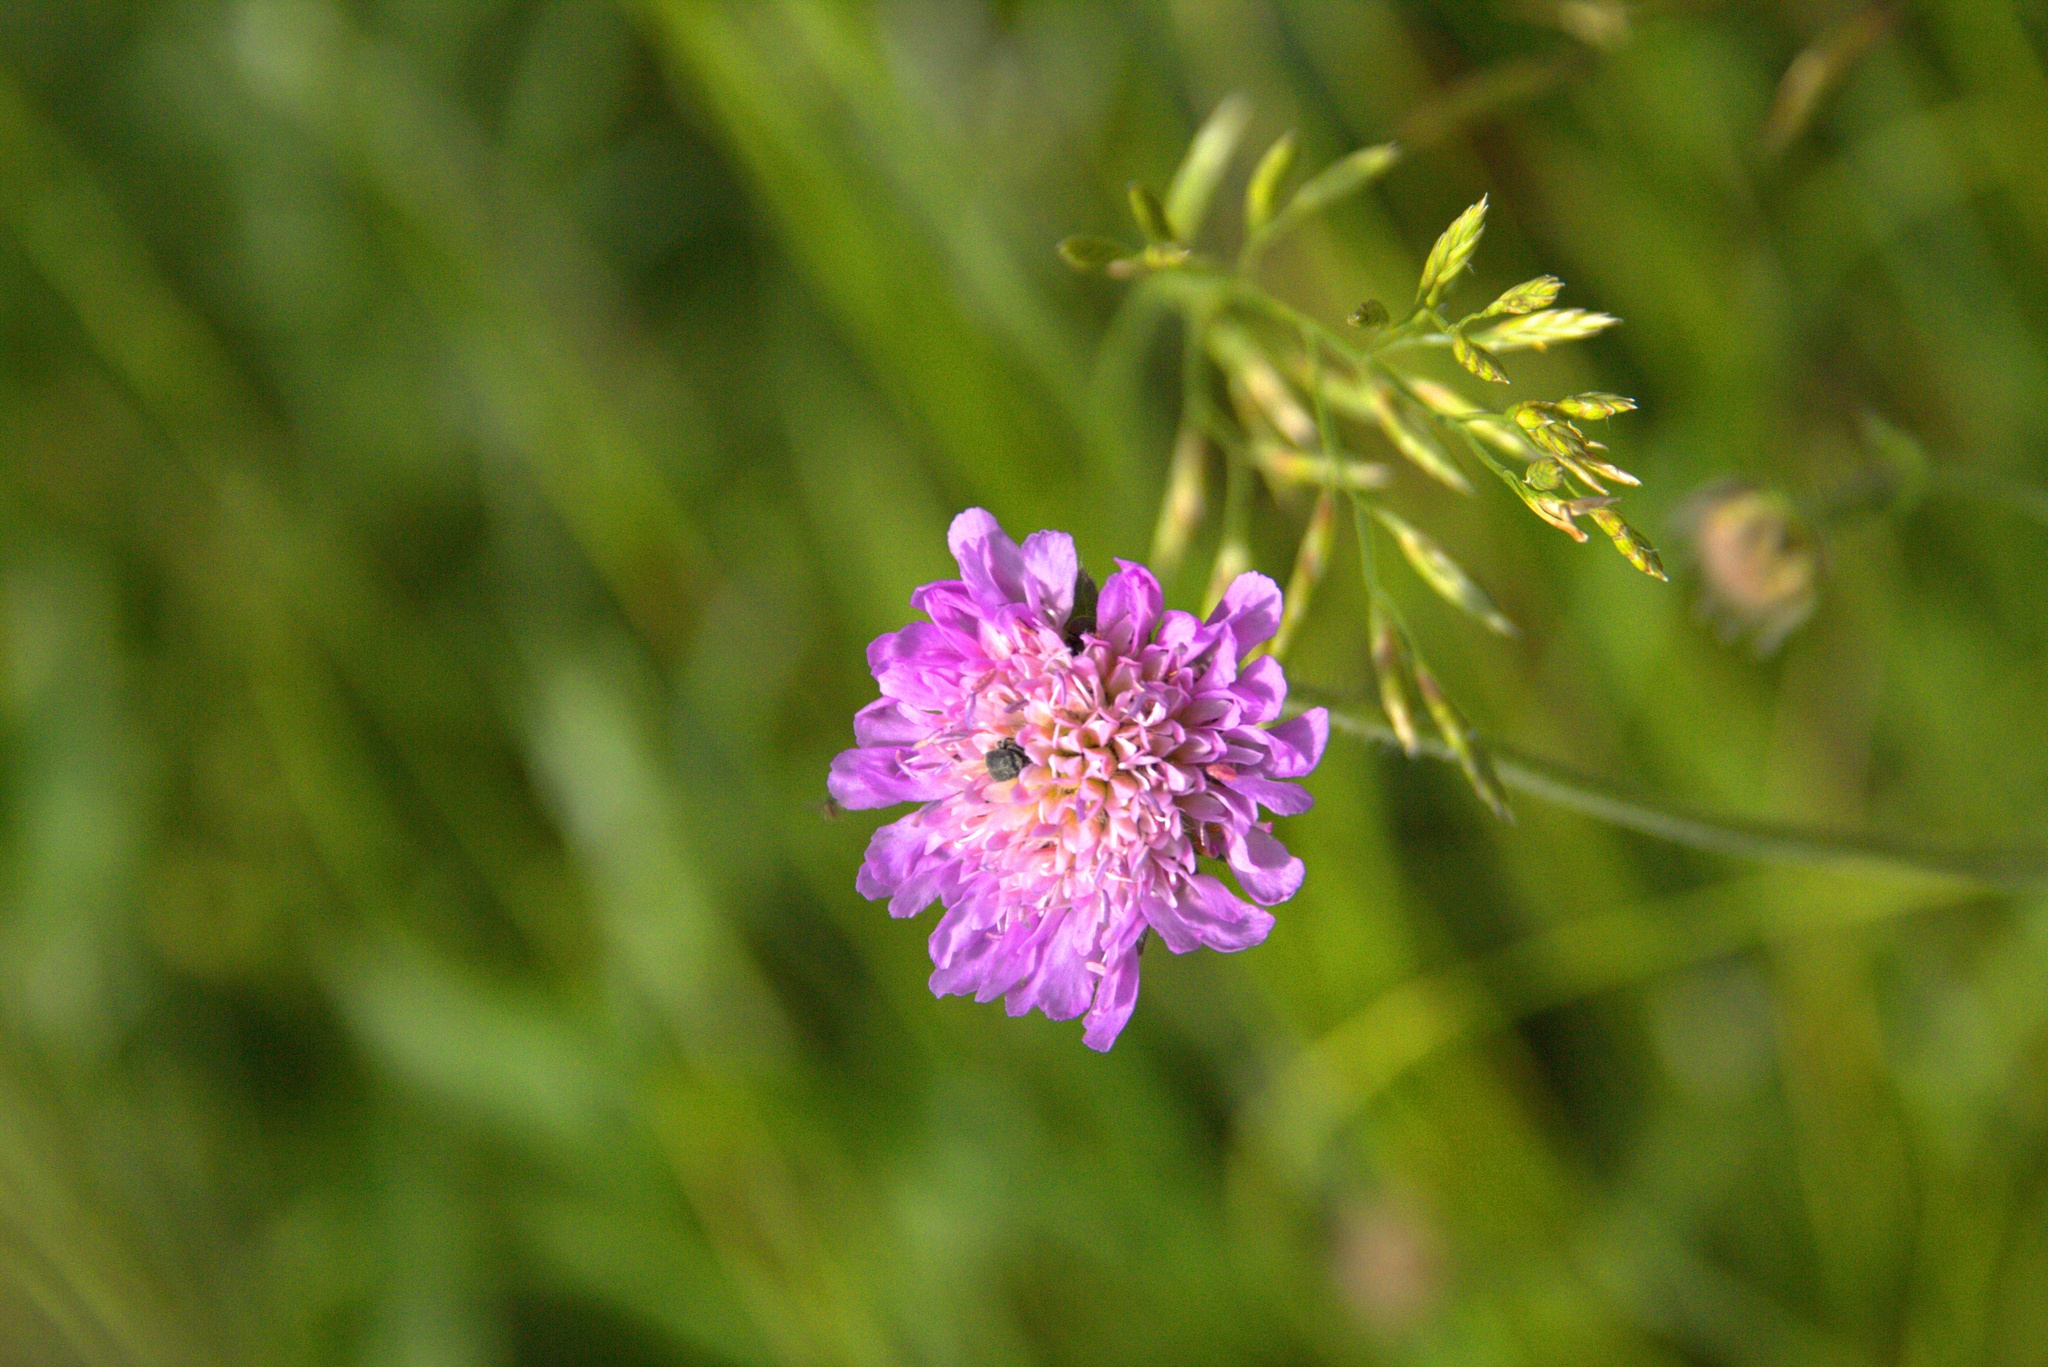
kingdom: Plantae
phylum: Tracheophyta
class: Magnoliopsida
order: Dipsacales
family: Caprifoliaceae
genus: Knautia
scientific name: Knautia arvensis
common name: Field scabiosa
